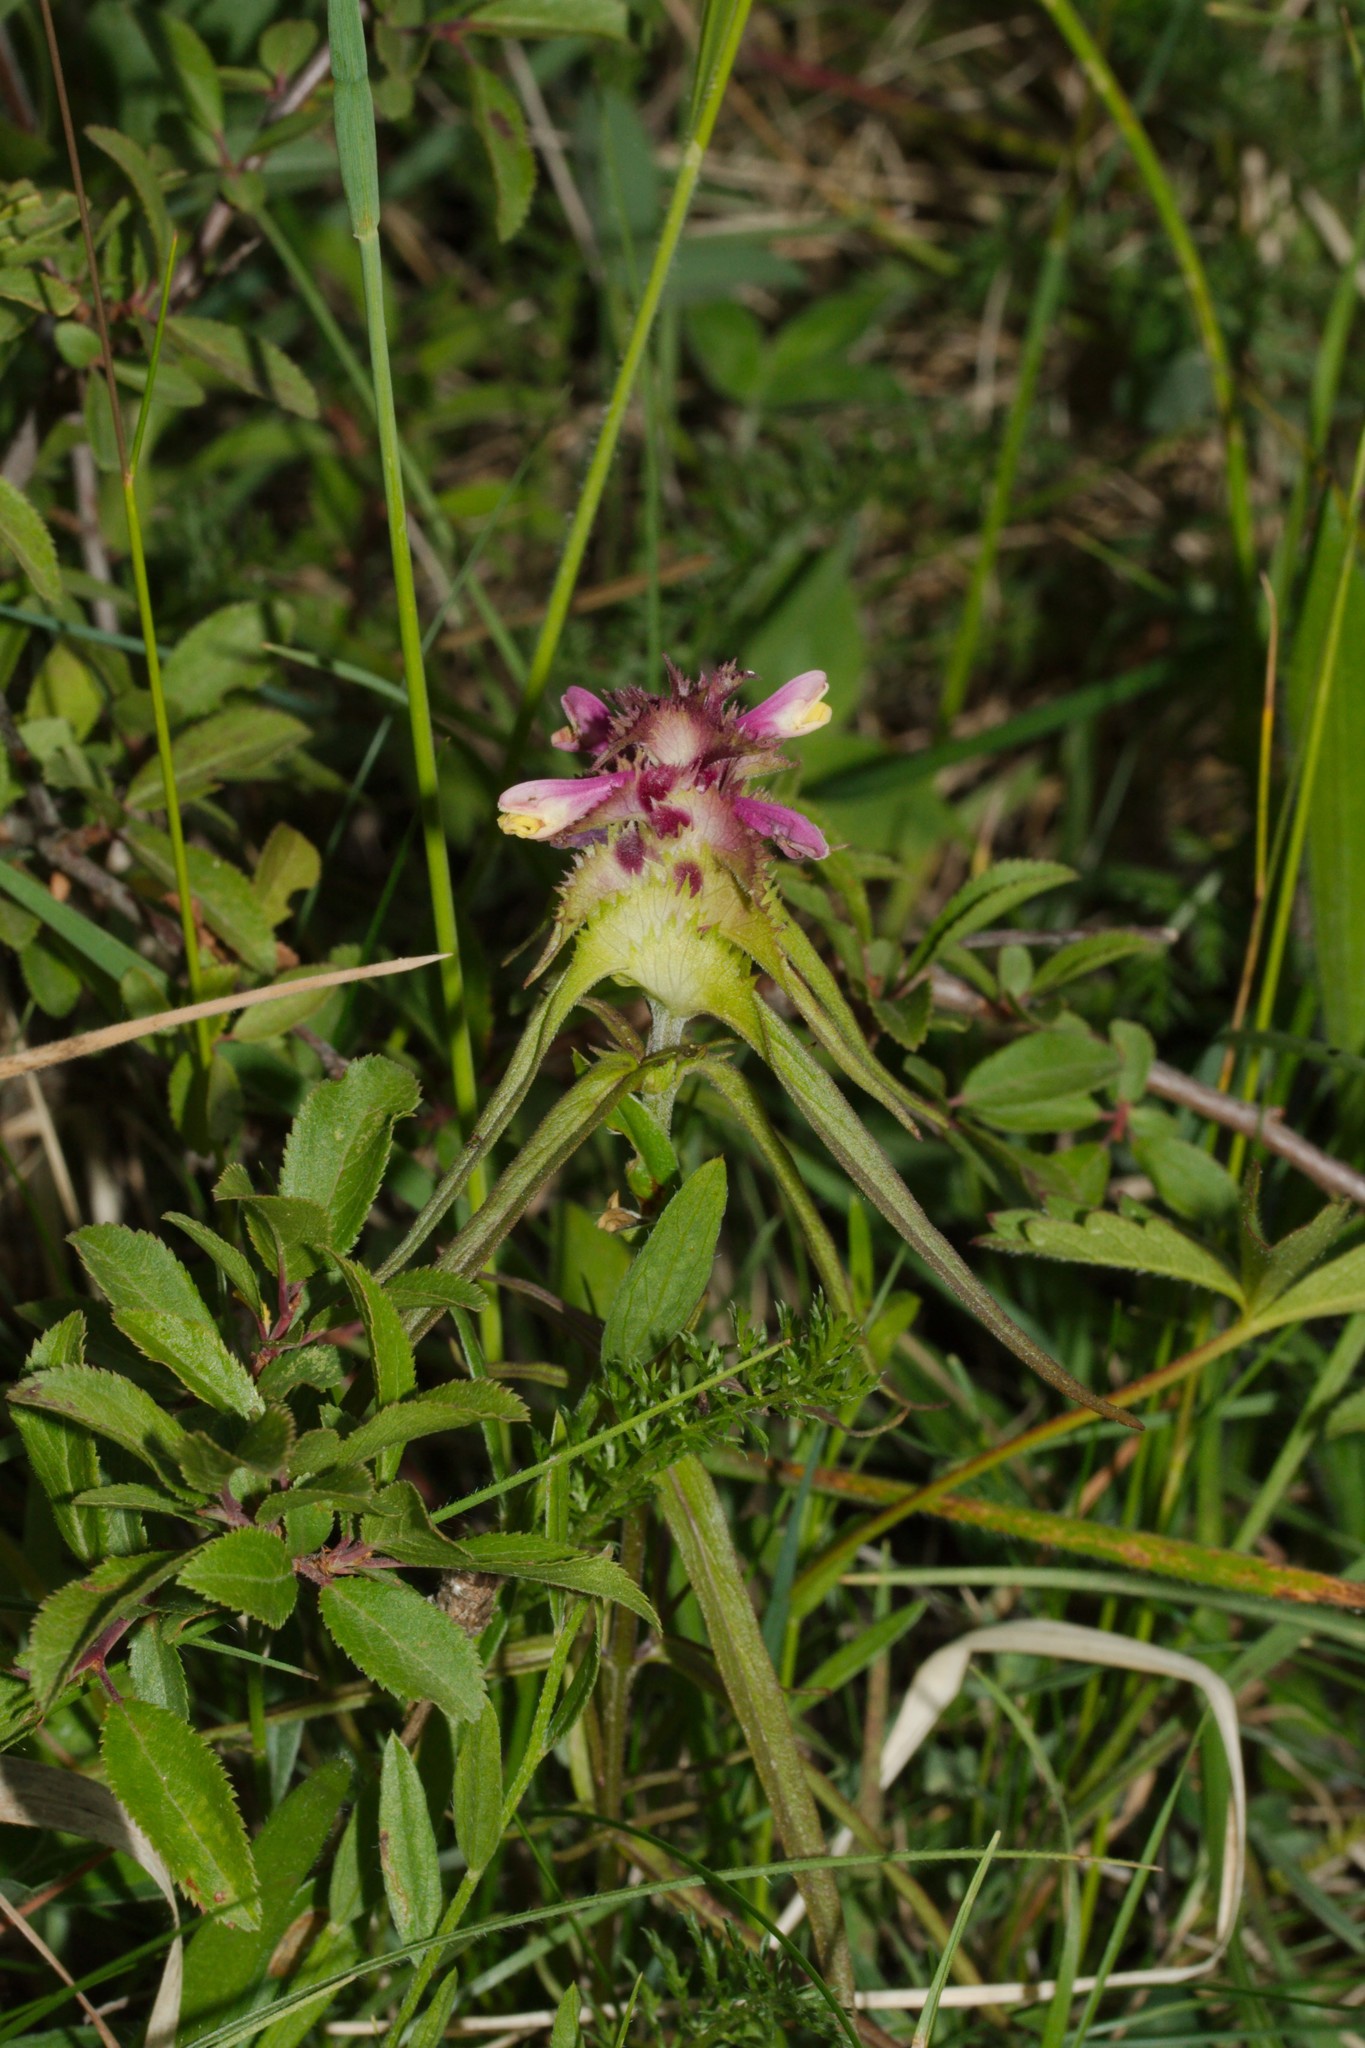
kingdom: Plantae
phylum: Tracheophyta
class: Magnoliopsida
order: Lamiales
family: Orobanchaceae
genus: Melampyrum
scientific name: Melampyrum cristatum
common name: Crested cow-wheat
